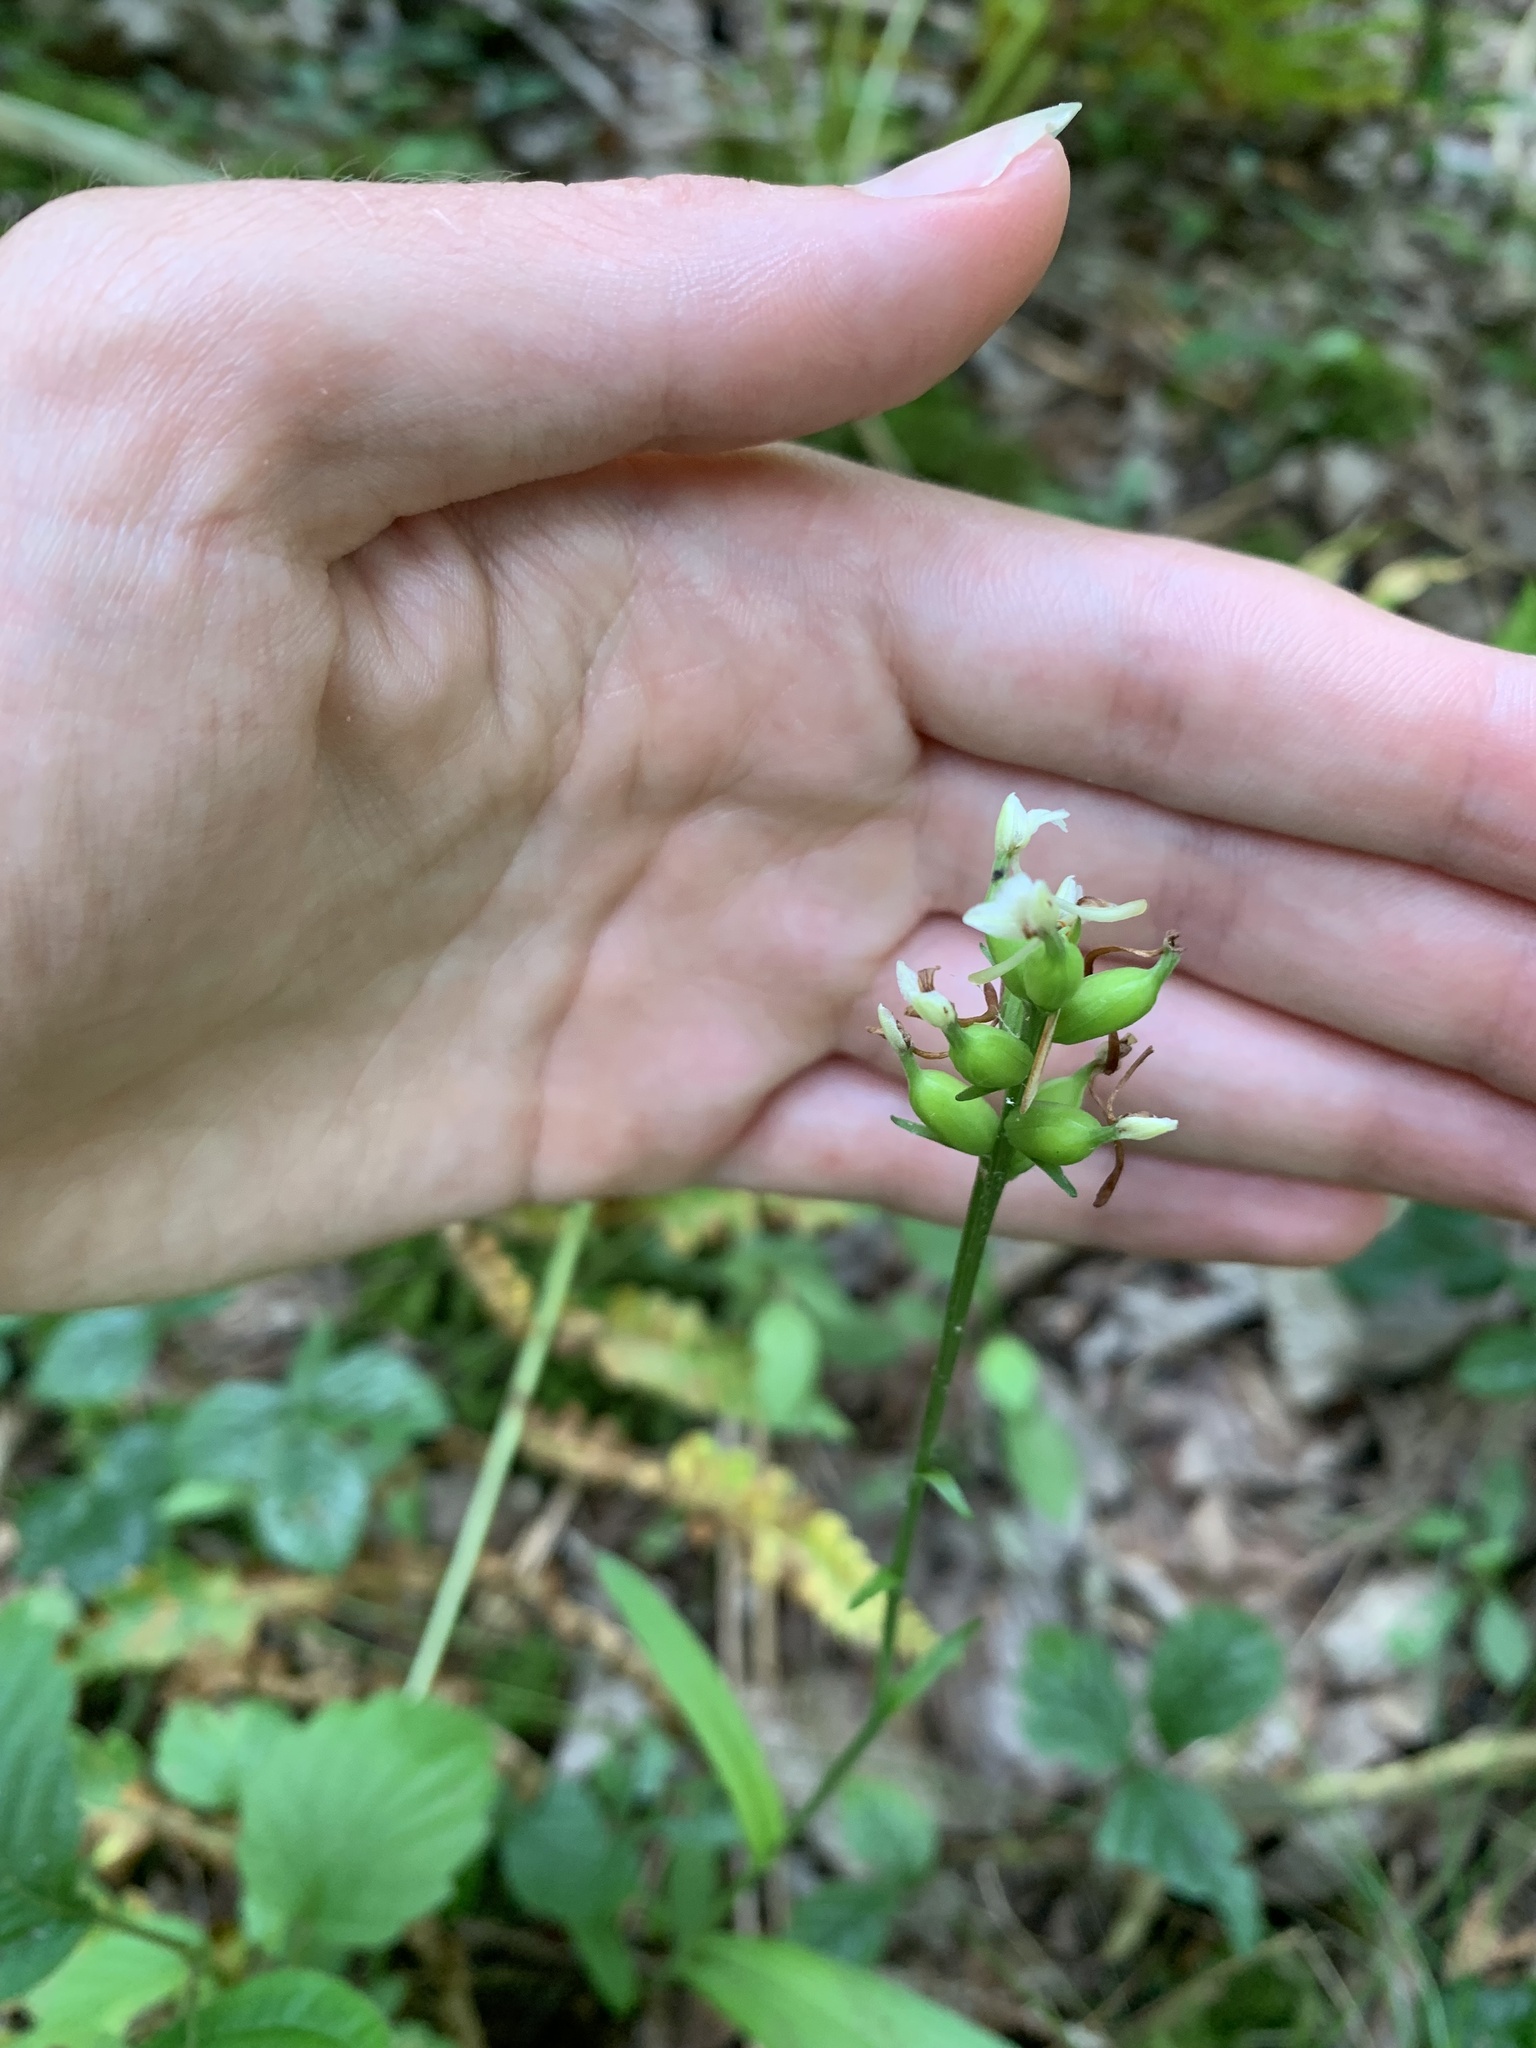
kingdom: Plantae
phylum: Tracheophyta
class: Liliopsida
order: Asparagales
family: Orchidaceae
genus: Platanthera
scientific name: Platanthera clavellata
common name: Club-spur orchid
